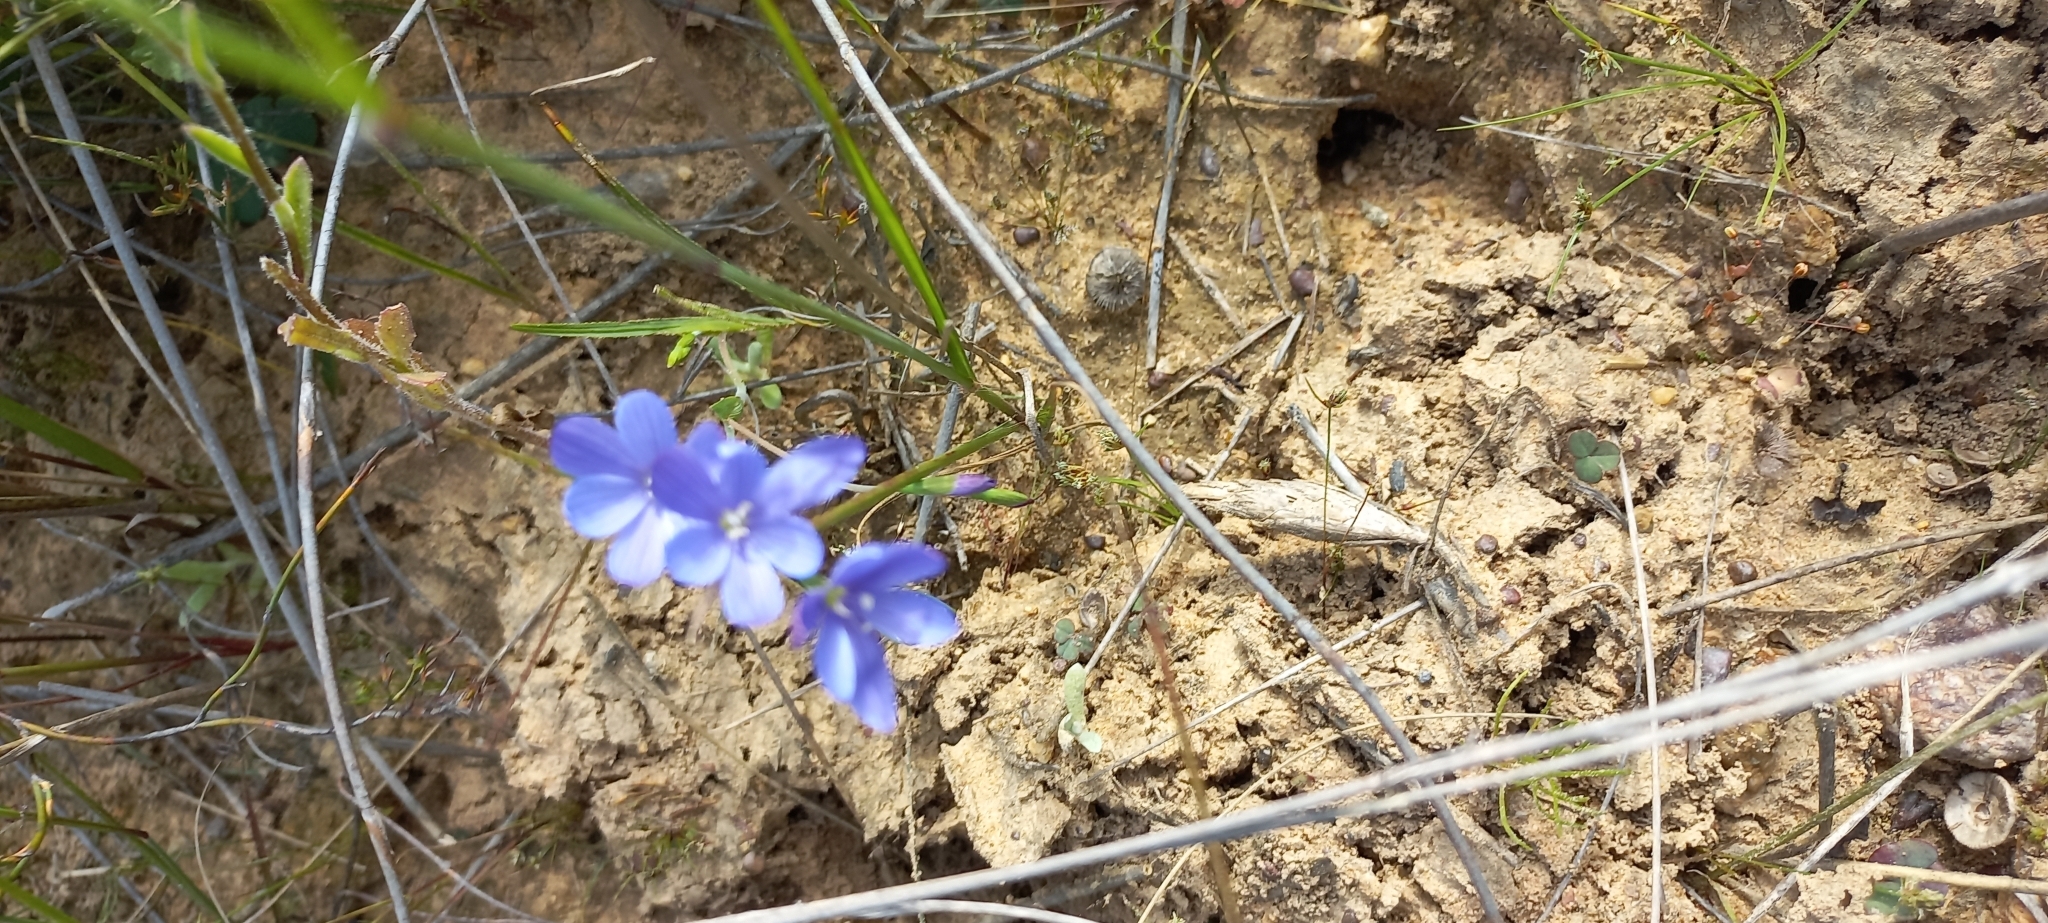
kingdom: Plantae
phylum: Tracheophyta
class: Liliopsida
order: Asparagales
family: Iridaceae
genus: Geissorhiza
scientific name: Geissorhiza aspera
